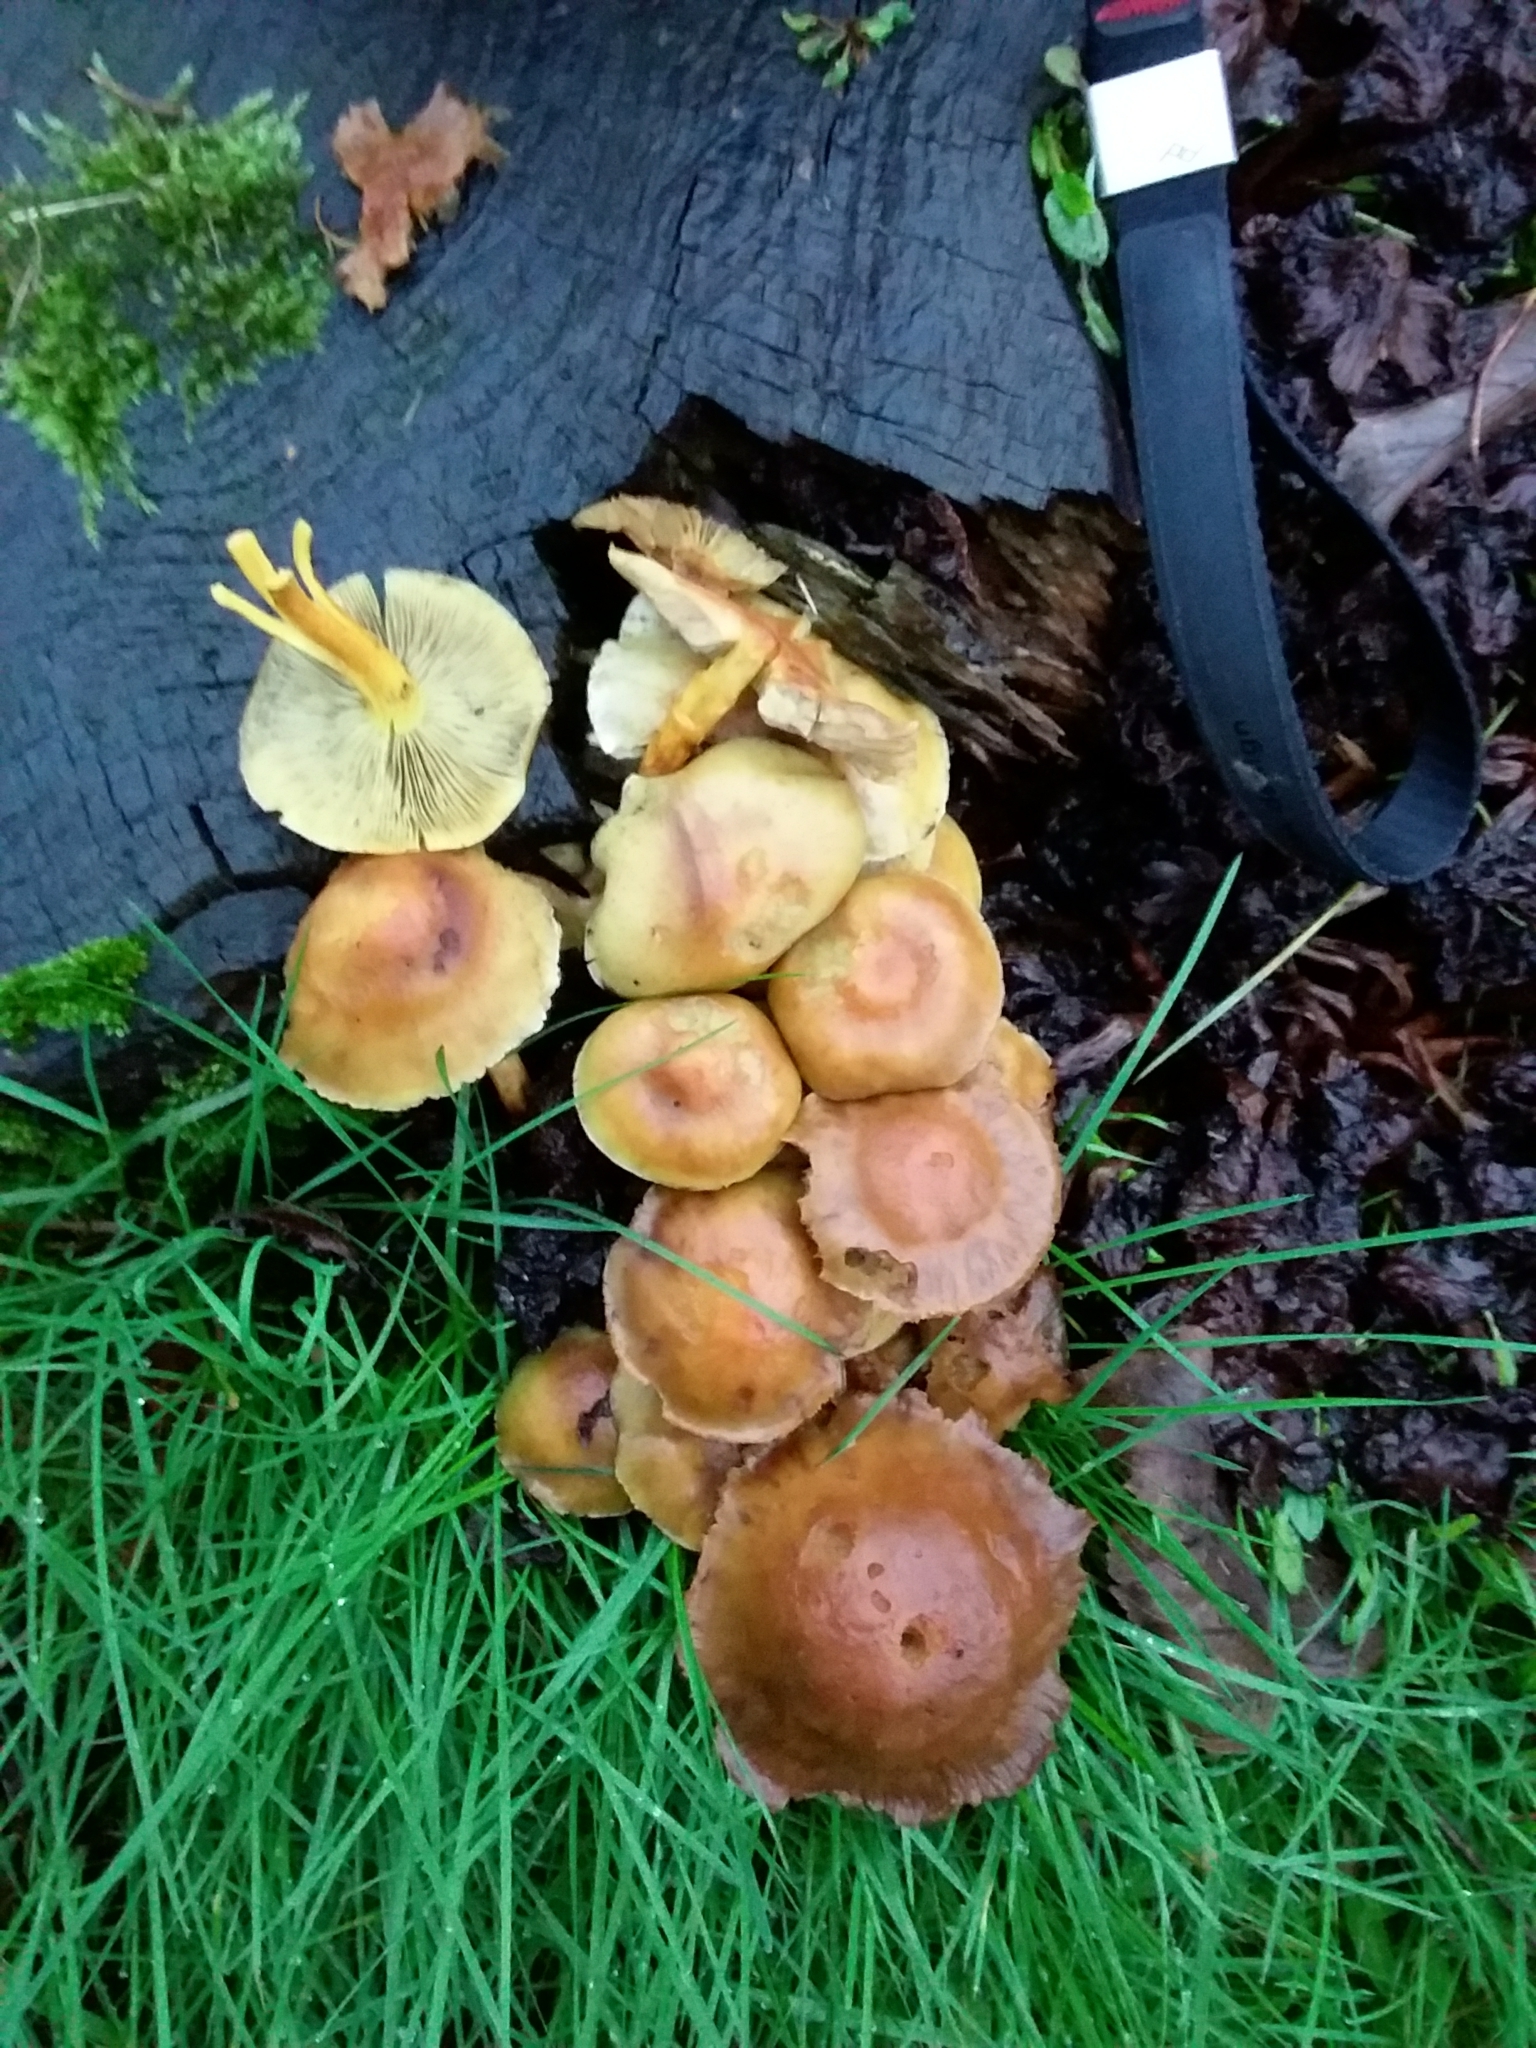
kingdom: Fungi
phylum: Basidiomycota
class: Agaricomycetes
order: Agaricales
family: Strophariaceae
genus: Hypholoma
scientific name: Hypholoma fasciculare
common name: Sulphur tuft
